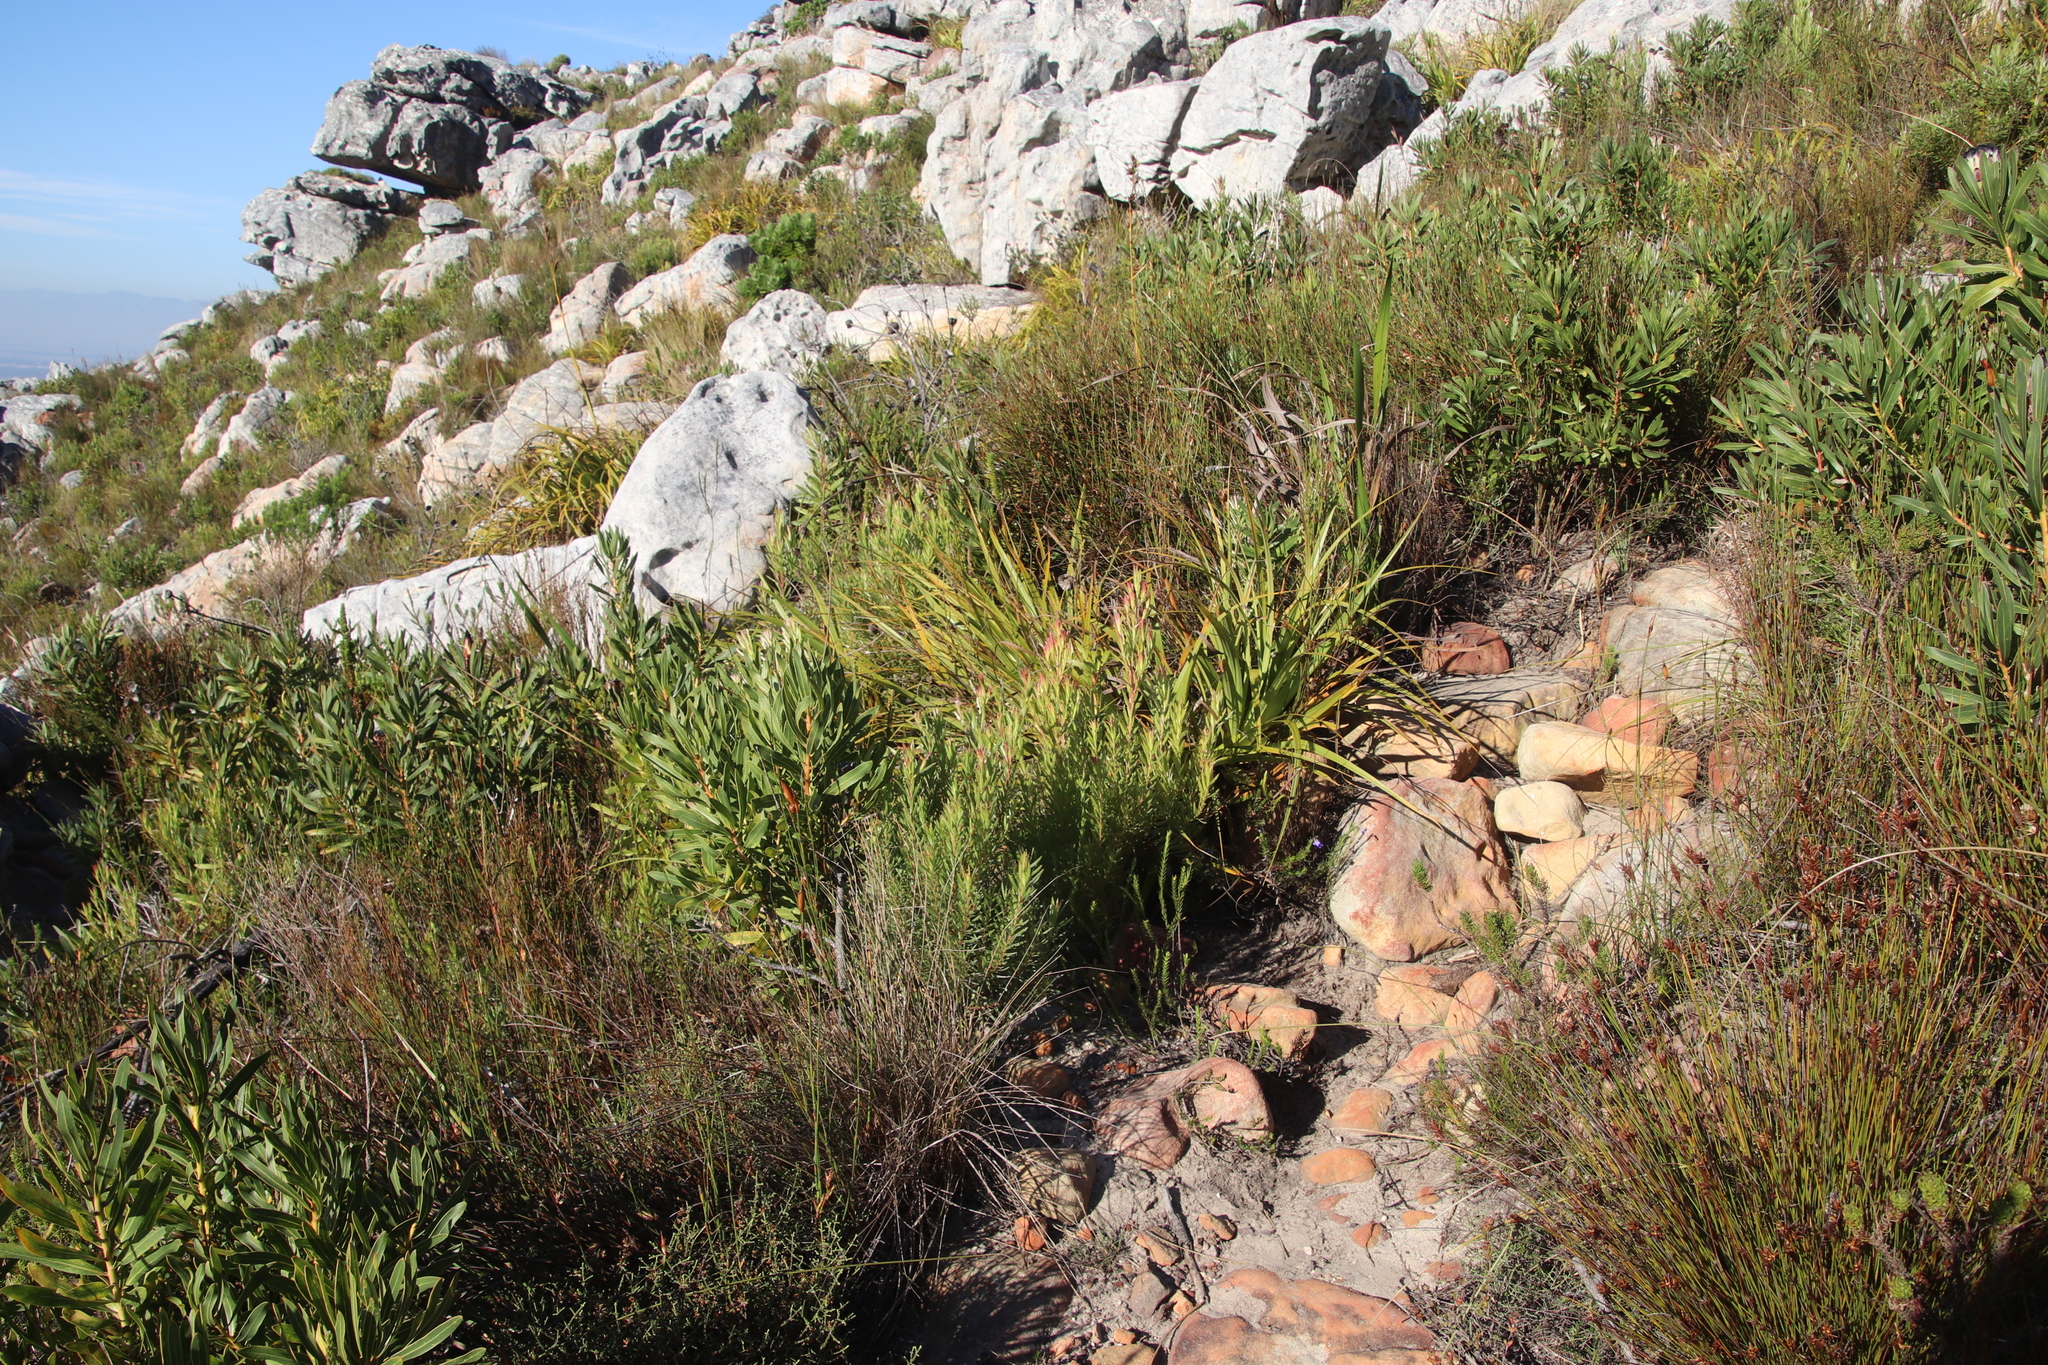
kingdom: Plantae
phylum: Tracheophyta
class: Magnoliopsida
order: Proteales
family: Proteaceae
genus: Leucadendron
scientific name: Leucadendron xanthoconus
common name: Sickle-leaf conebush
